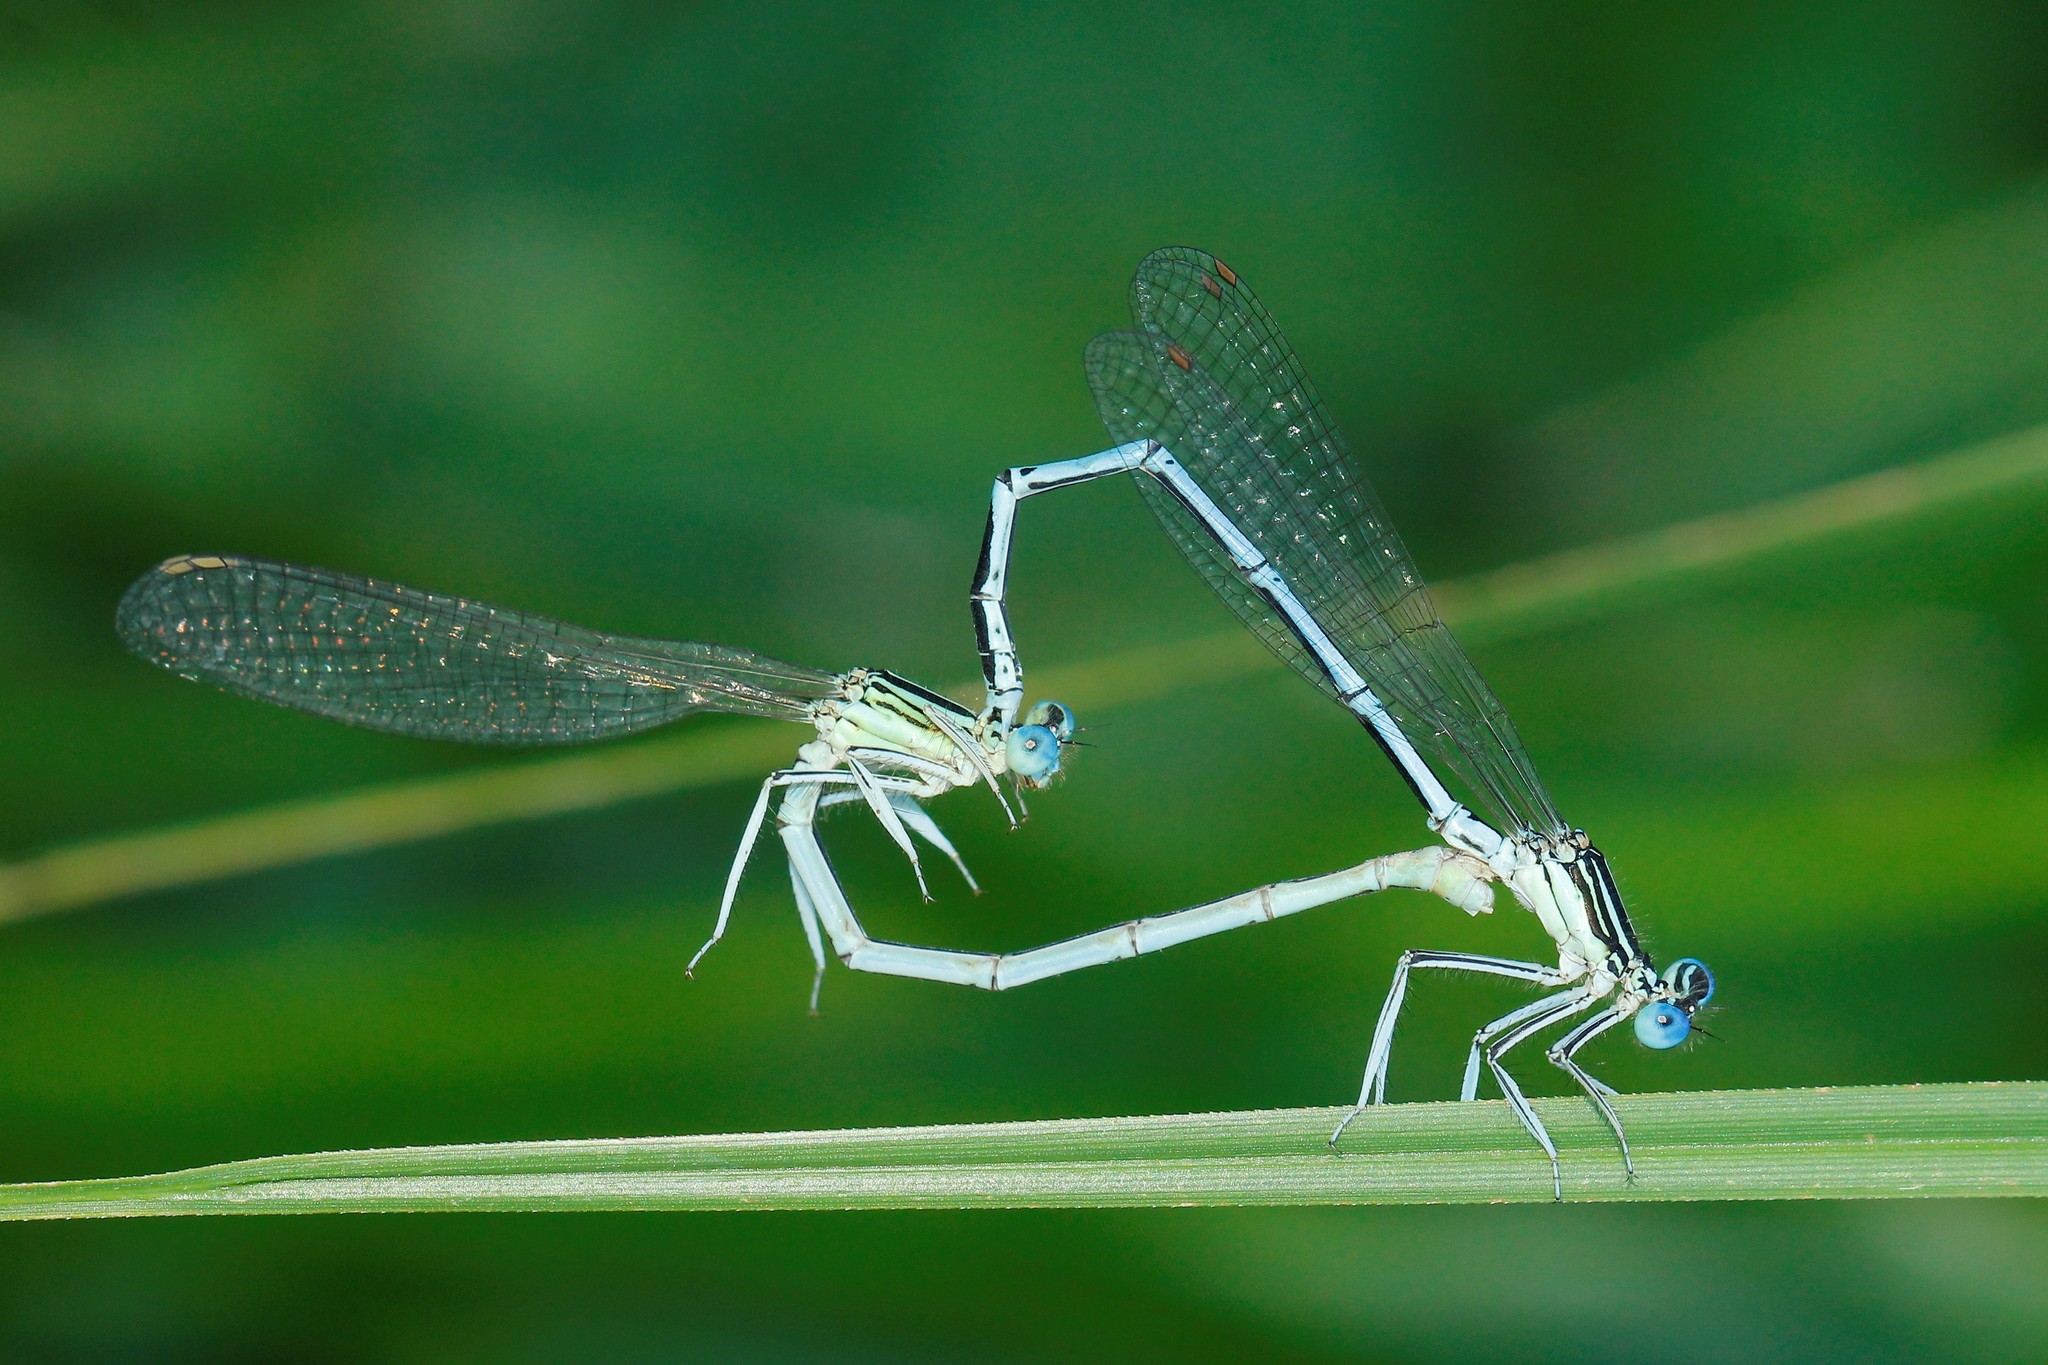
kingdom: Animalia
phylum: Arthropoda
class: Insecta
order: Odonata
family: Platycnemididae
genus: Platycnemis
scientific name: Platycnemis pennipes
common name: White-legged damselfly
